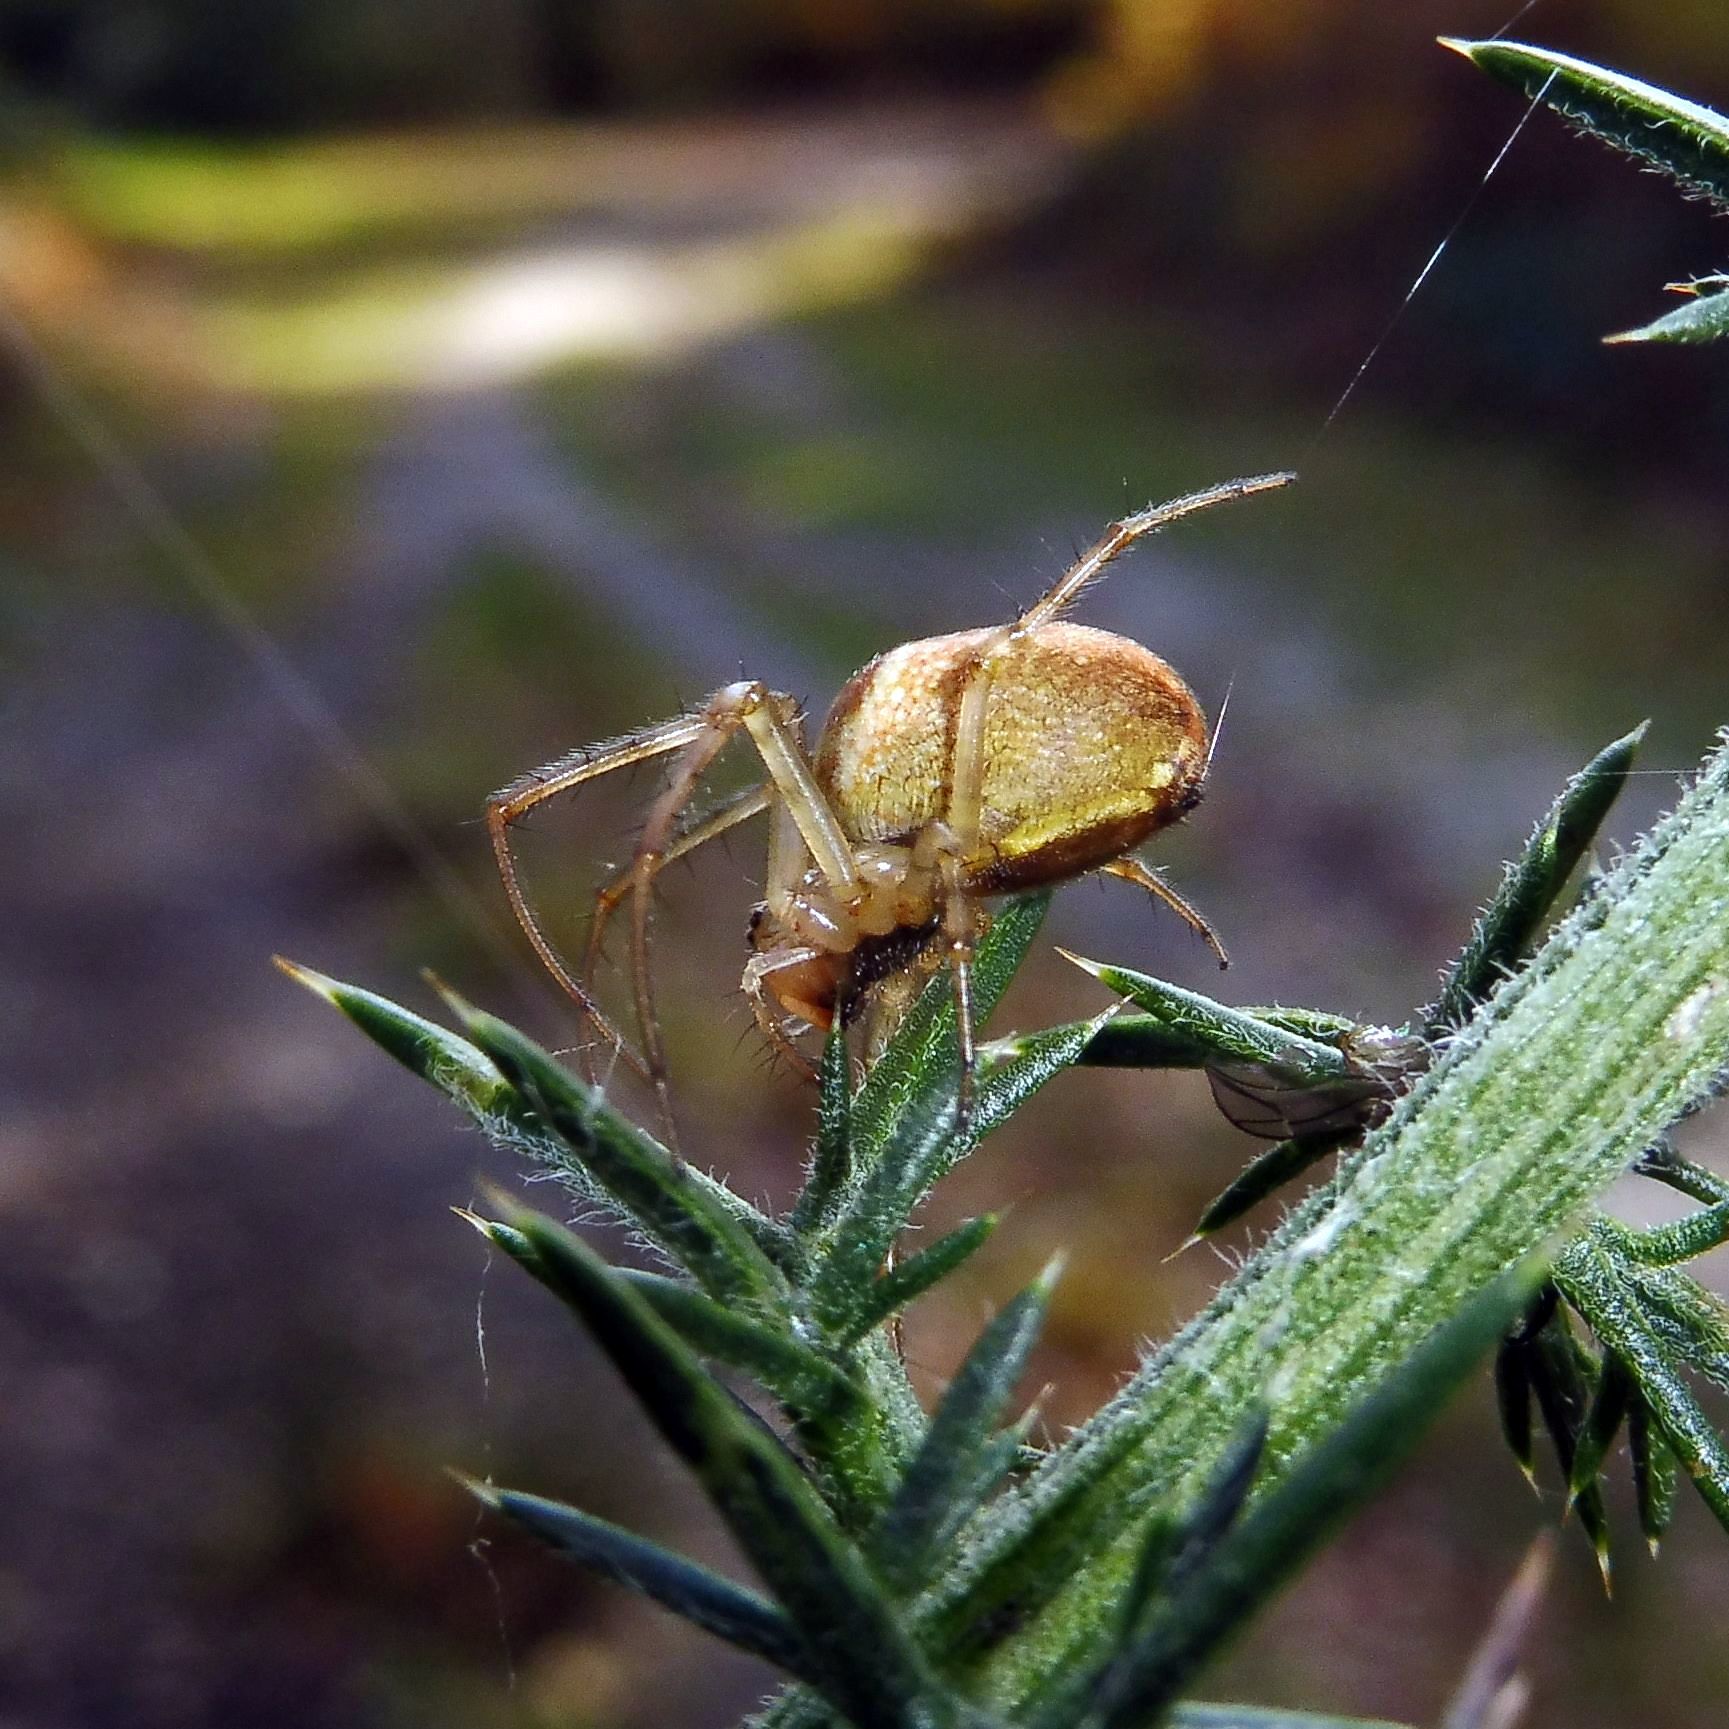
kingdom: Animalia
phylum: Arthropoda
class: Arachnida
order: Araneae
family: Tetragnathidae
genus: Metellina
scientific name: Metellina segmentata
